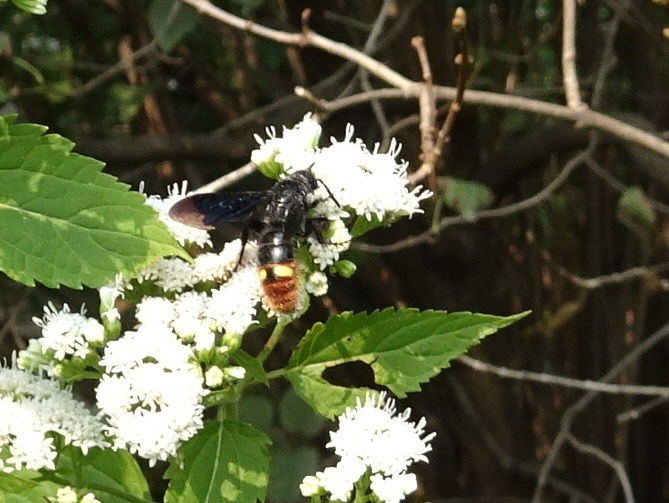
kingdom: Animalia
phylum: Arthropoda
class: Insecta
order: Hymenoptera
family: Scoliidae
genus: Scolia
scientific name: Scolia dubia
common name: Blue-winged scoliid wasp
